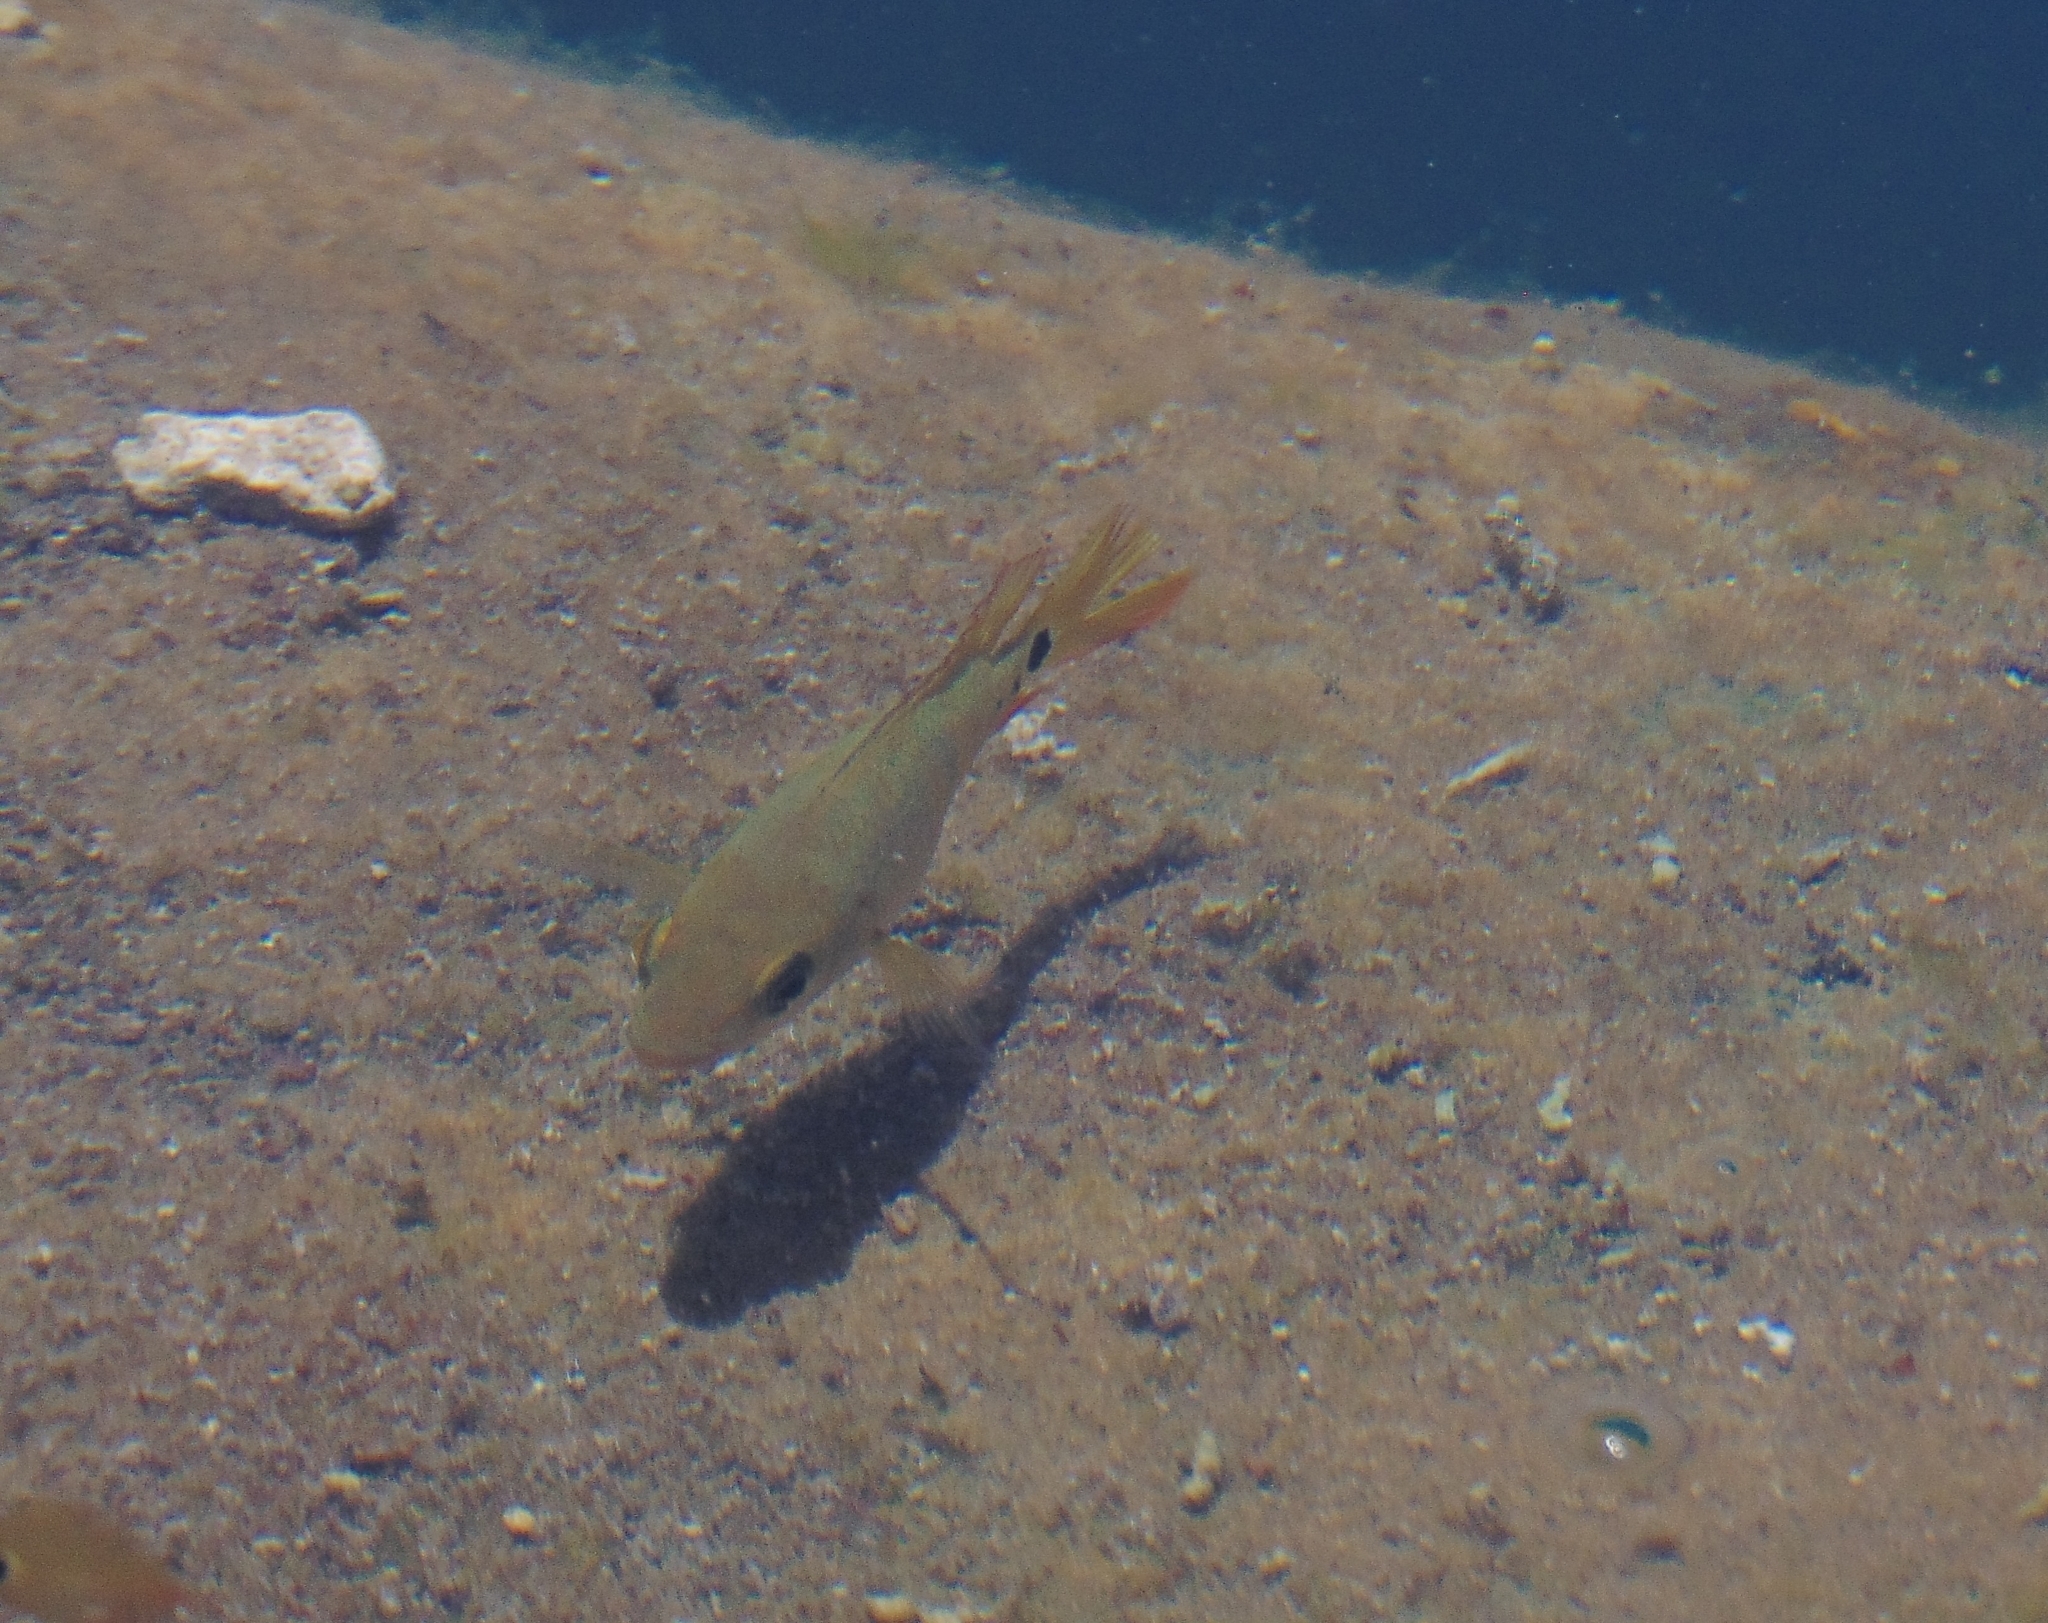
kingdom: Animalia
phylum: Chordata
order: Perciformes
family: Cichlidae
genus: Mayaheros
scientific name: Mayaheros urophthalmus
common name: Mayan cichlid
